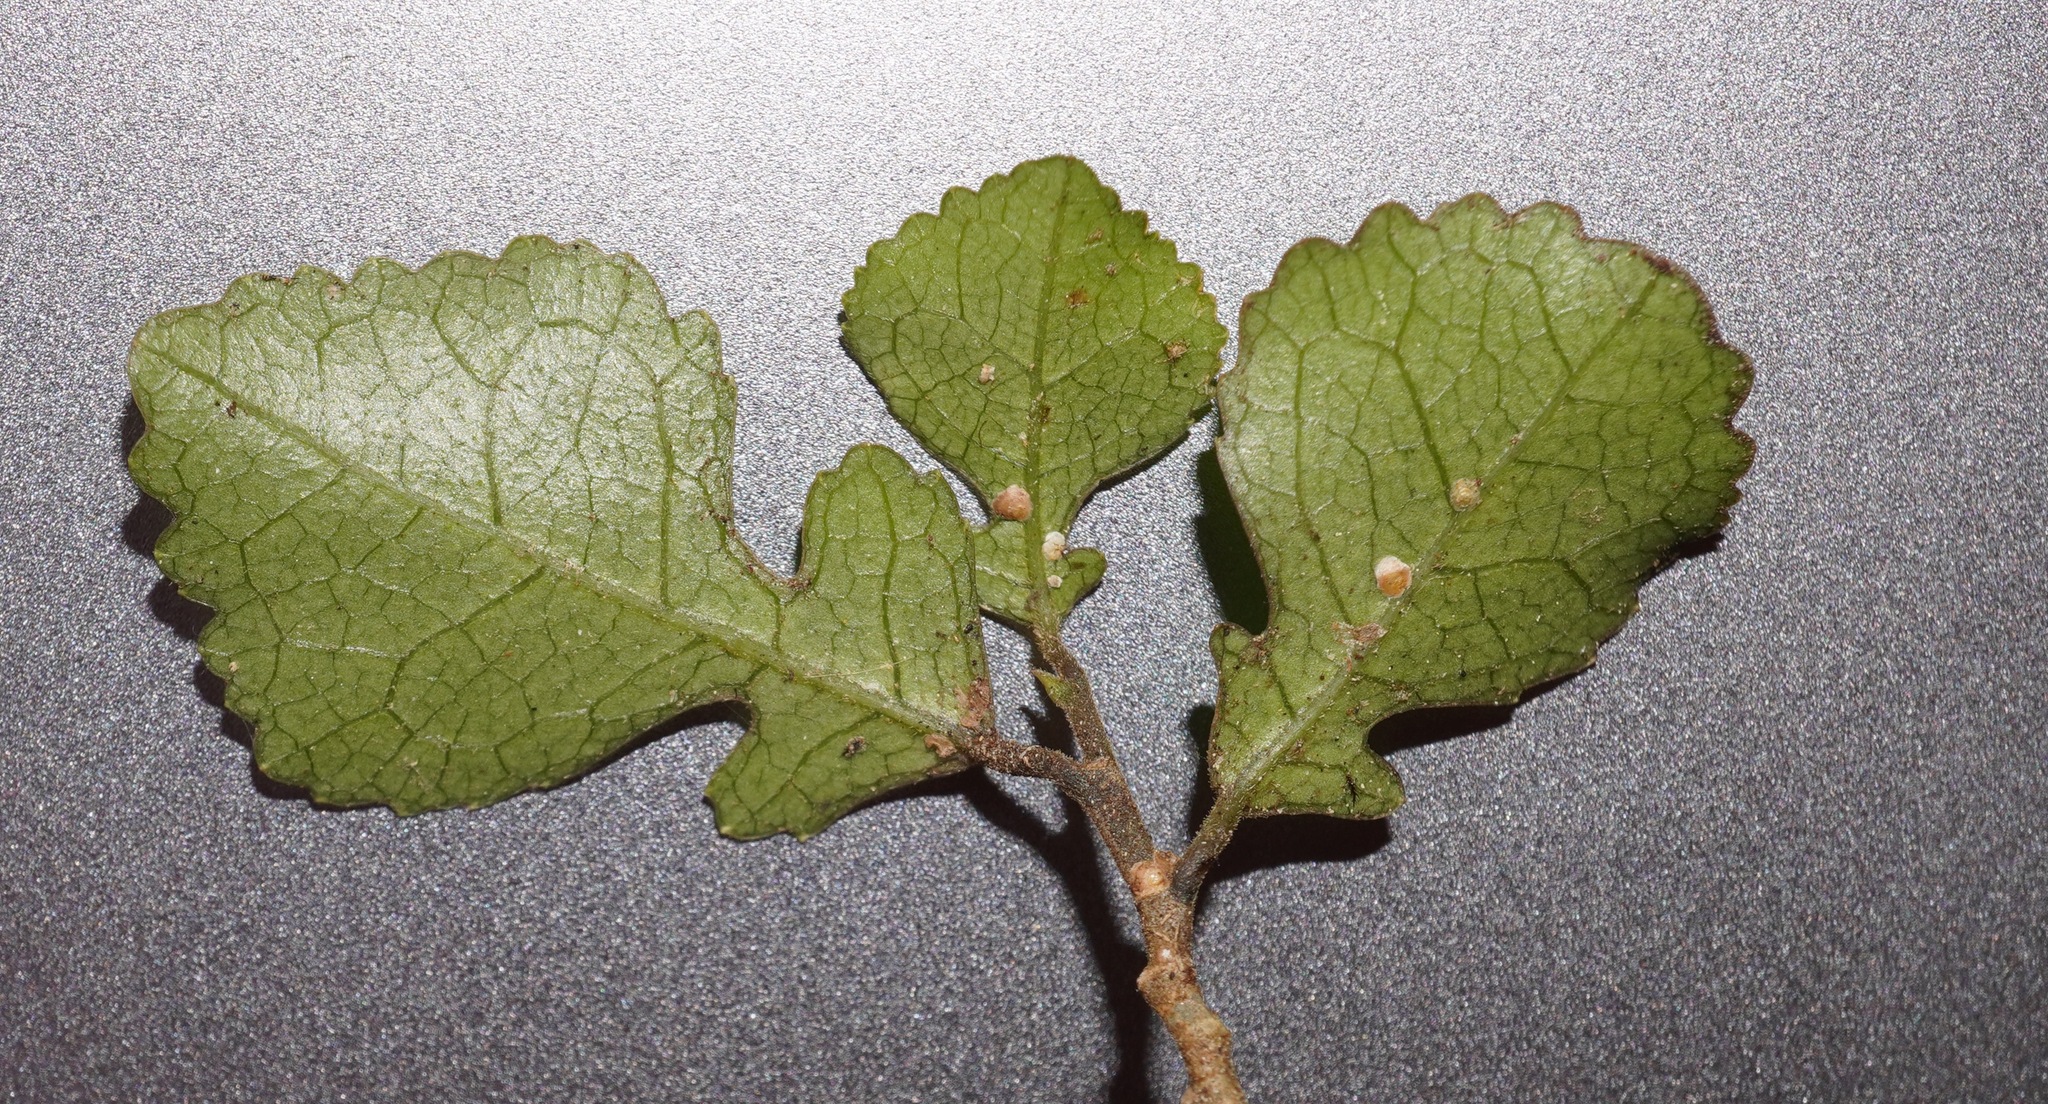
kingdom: Plantae
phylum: Tracheophyta
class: Magnoliopsida
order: Rosales
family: Moraceae
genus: Paratrophis
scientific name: Paratrophis microphylla
